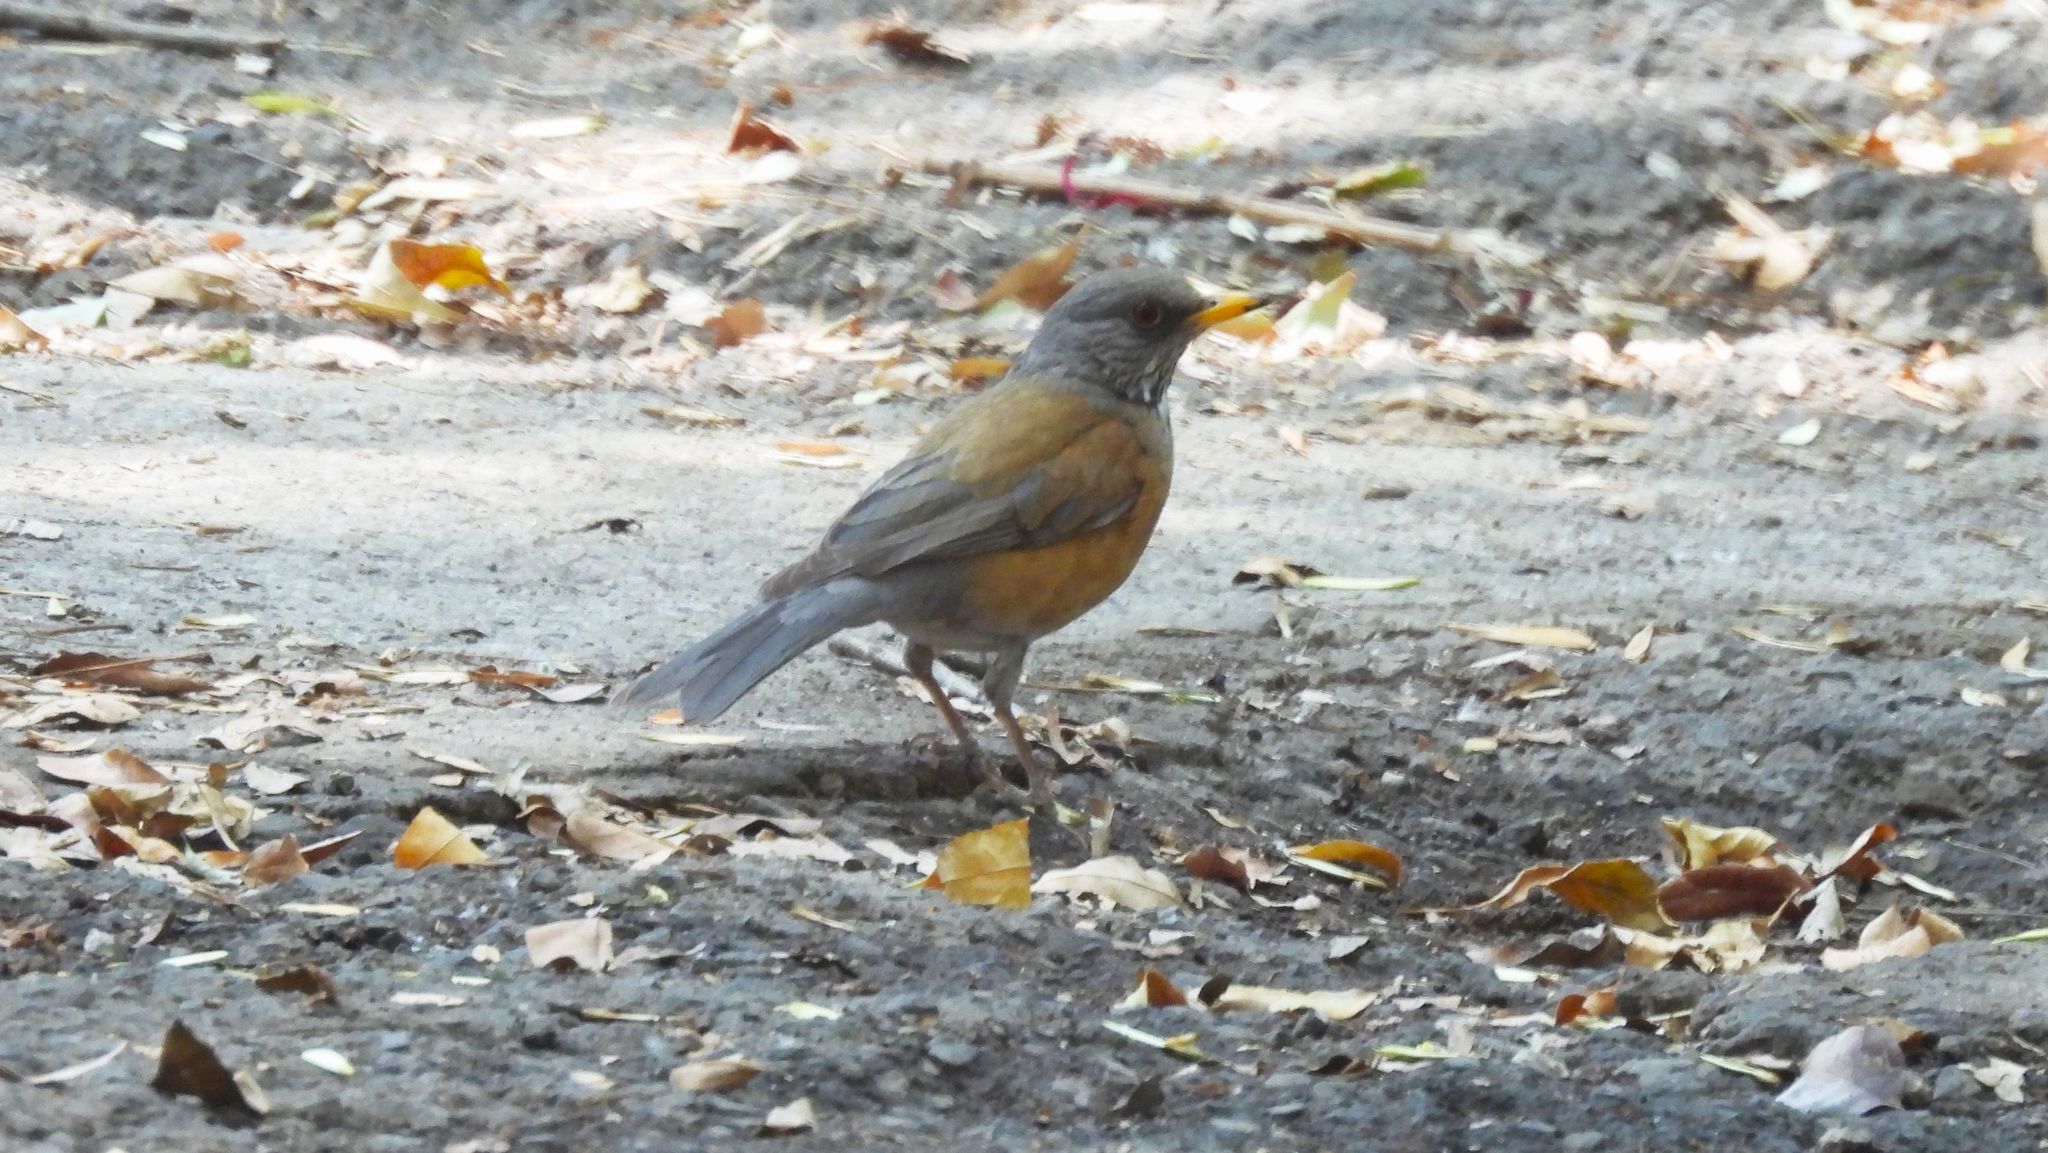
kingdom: Animalia
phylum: Chordata
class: Aves
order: Passeriformes
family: Turdidae
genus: Turdus
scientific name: Turdus rufopalliatus
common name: Rufous-backed robin
